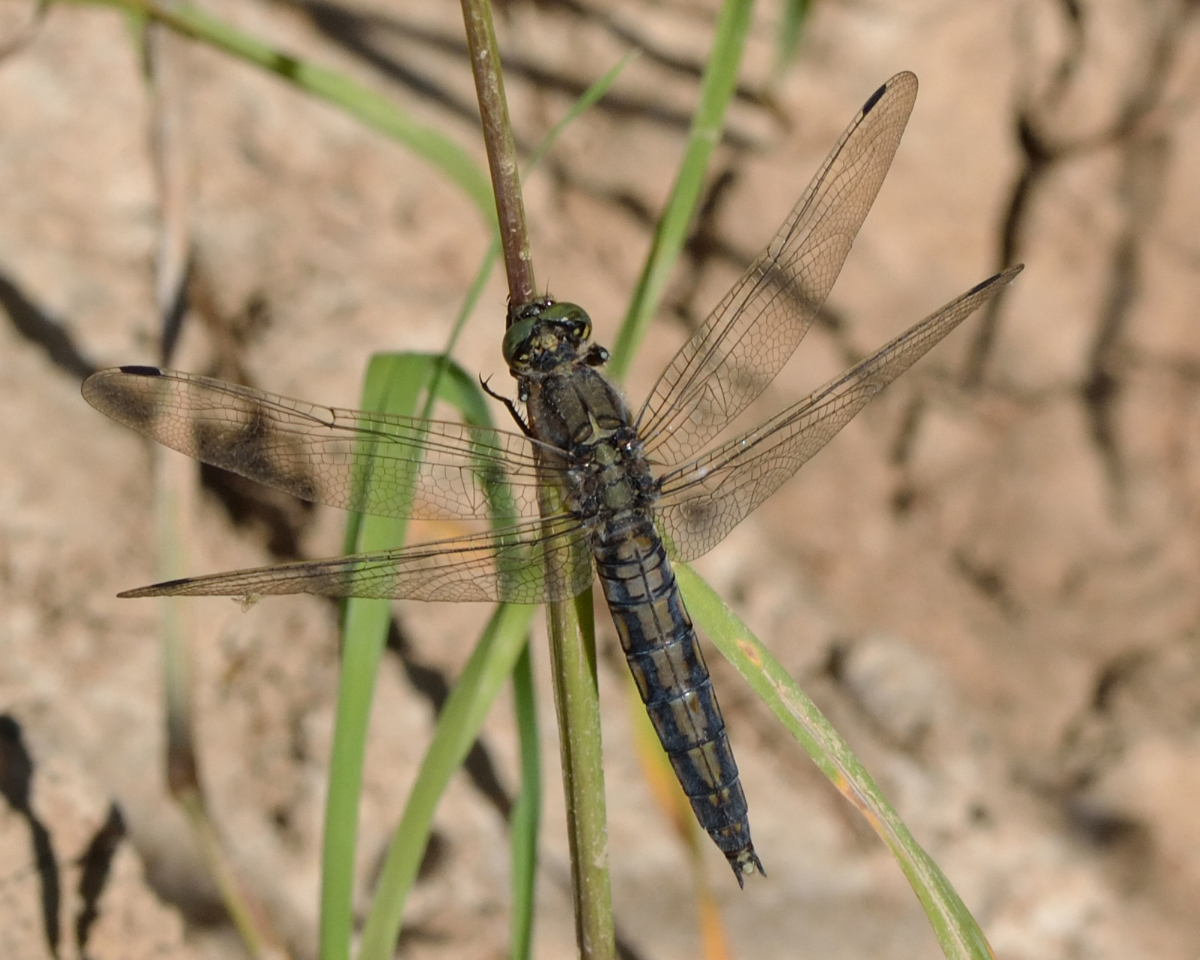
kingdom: Animalia
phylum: Arthropoda
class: Insecta
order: Odonata
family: Libellulidae
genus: Orthetrum
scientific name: Orthetrum cancellatum
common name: Black-tailed skimmer
